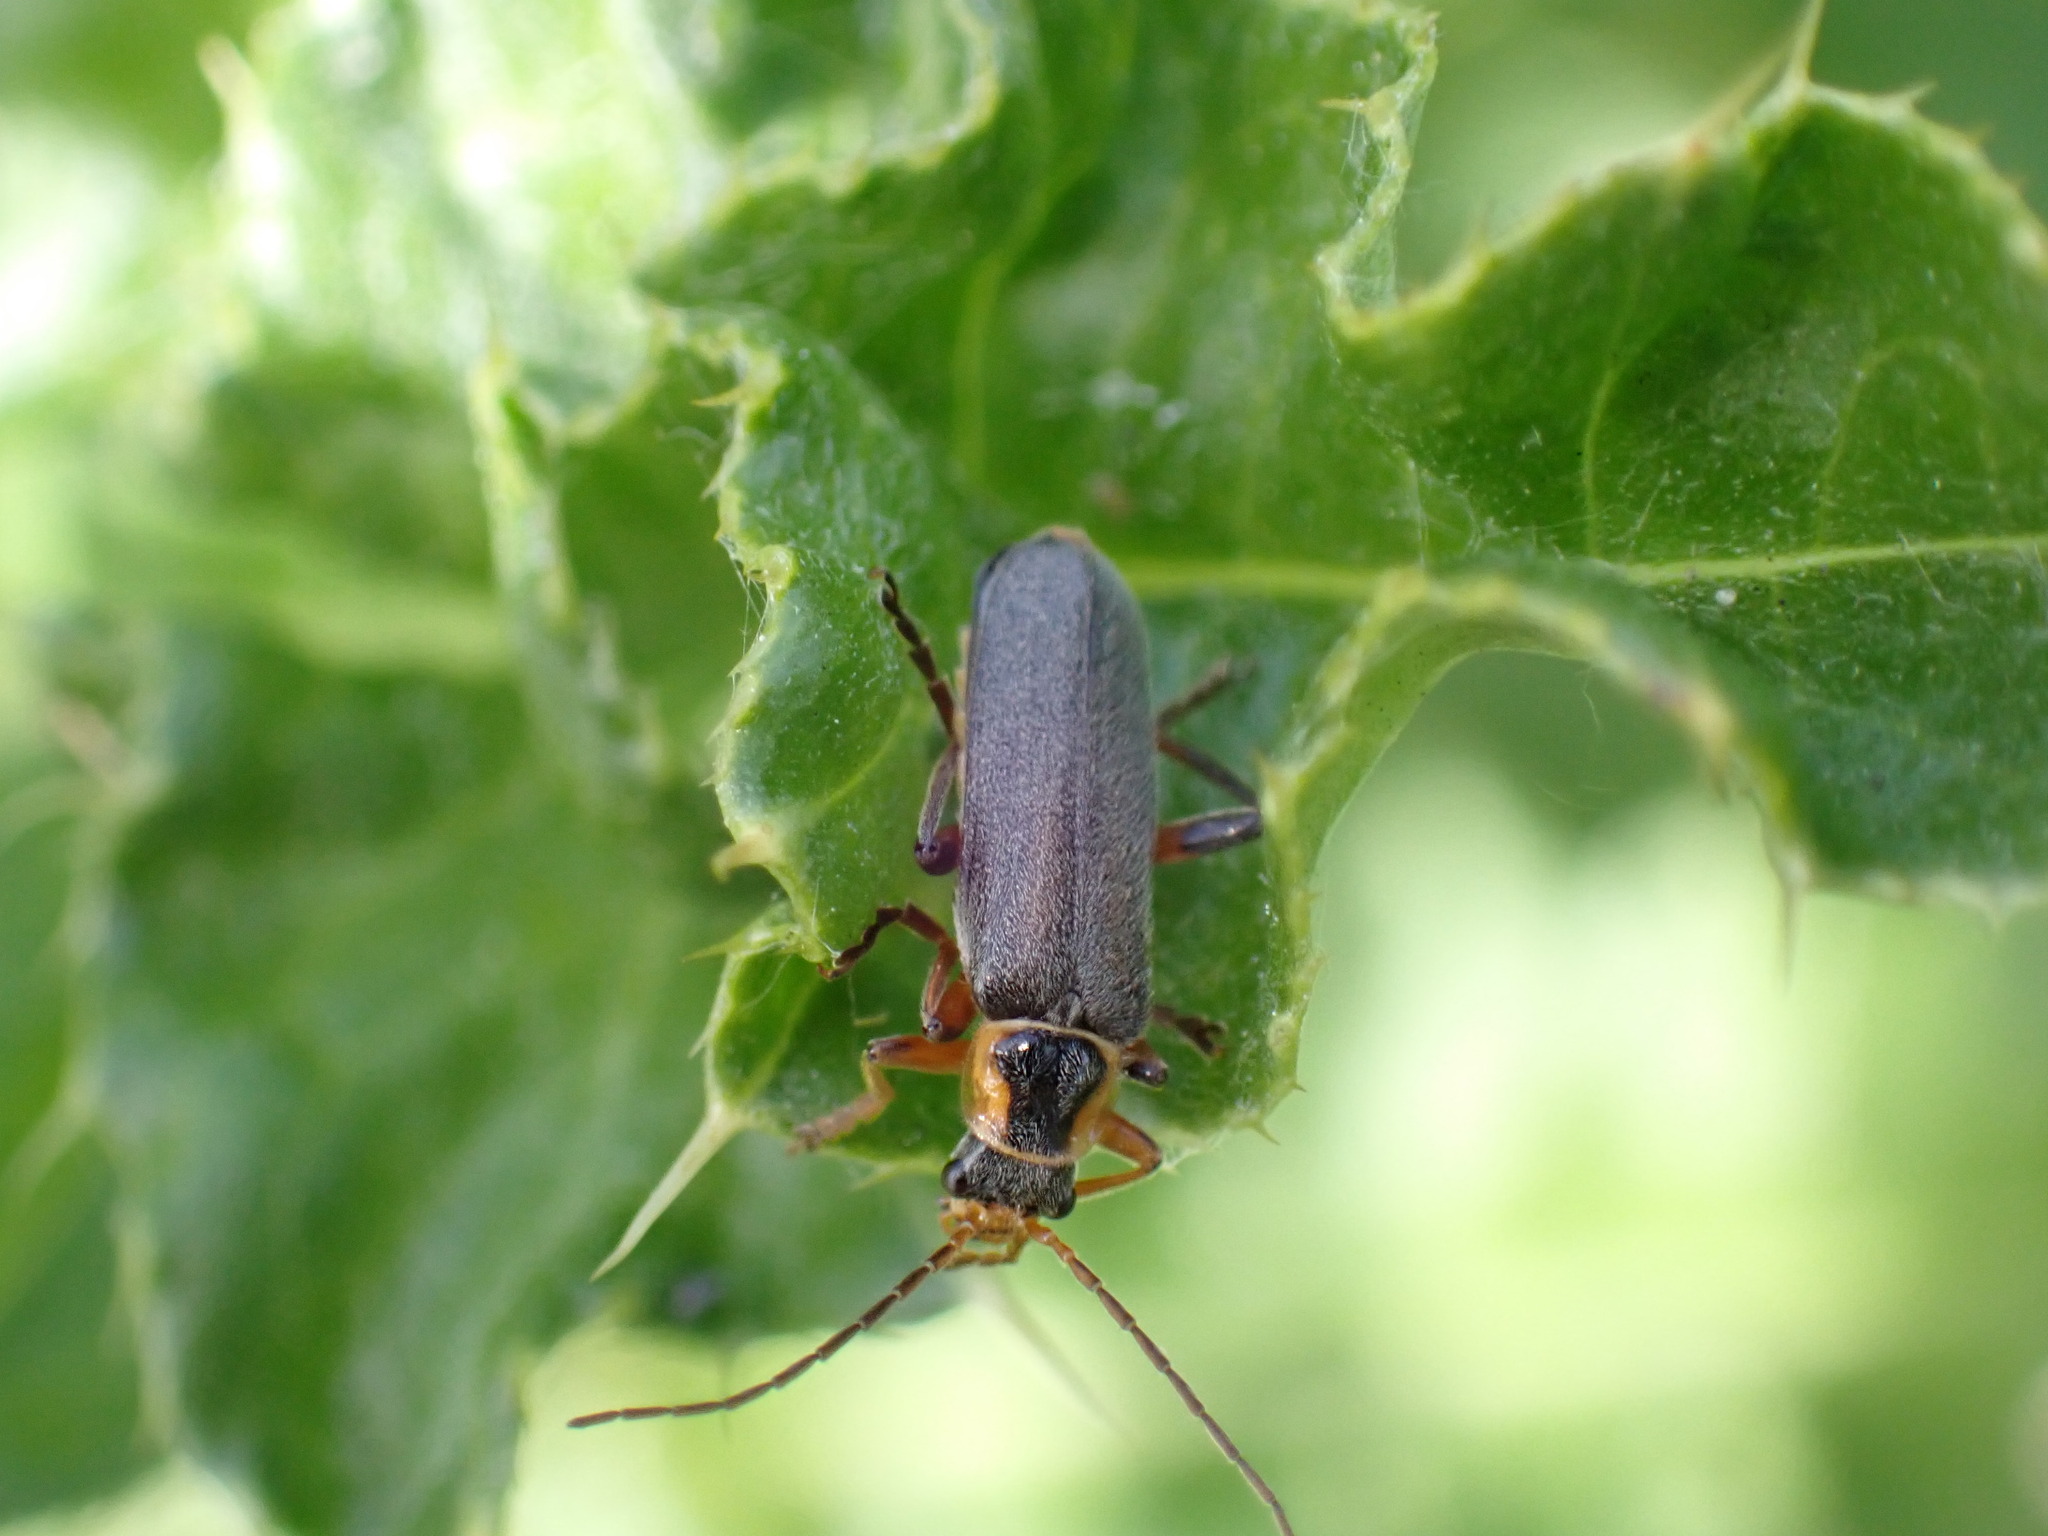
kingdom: Animalia
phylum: Arthropoda
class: Insecta
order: Coleoptera
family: Cantharidae
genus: Cantharis
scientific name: Cantharis nigricans
